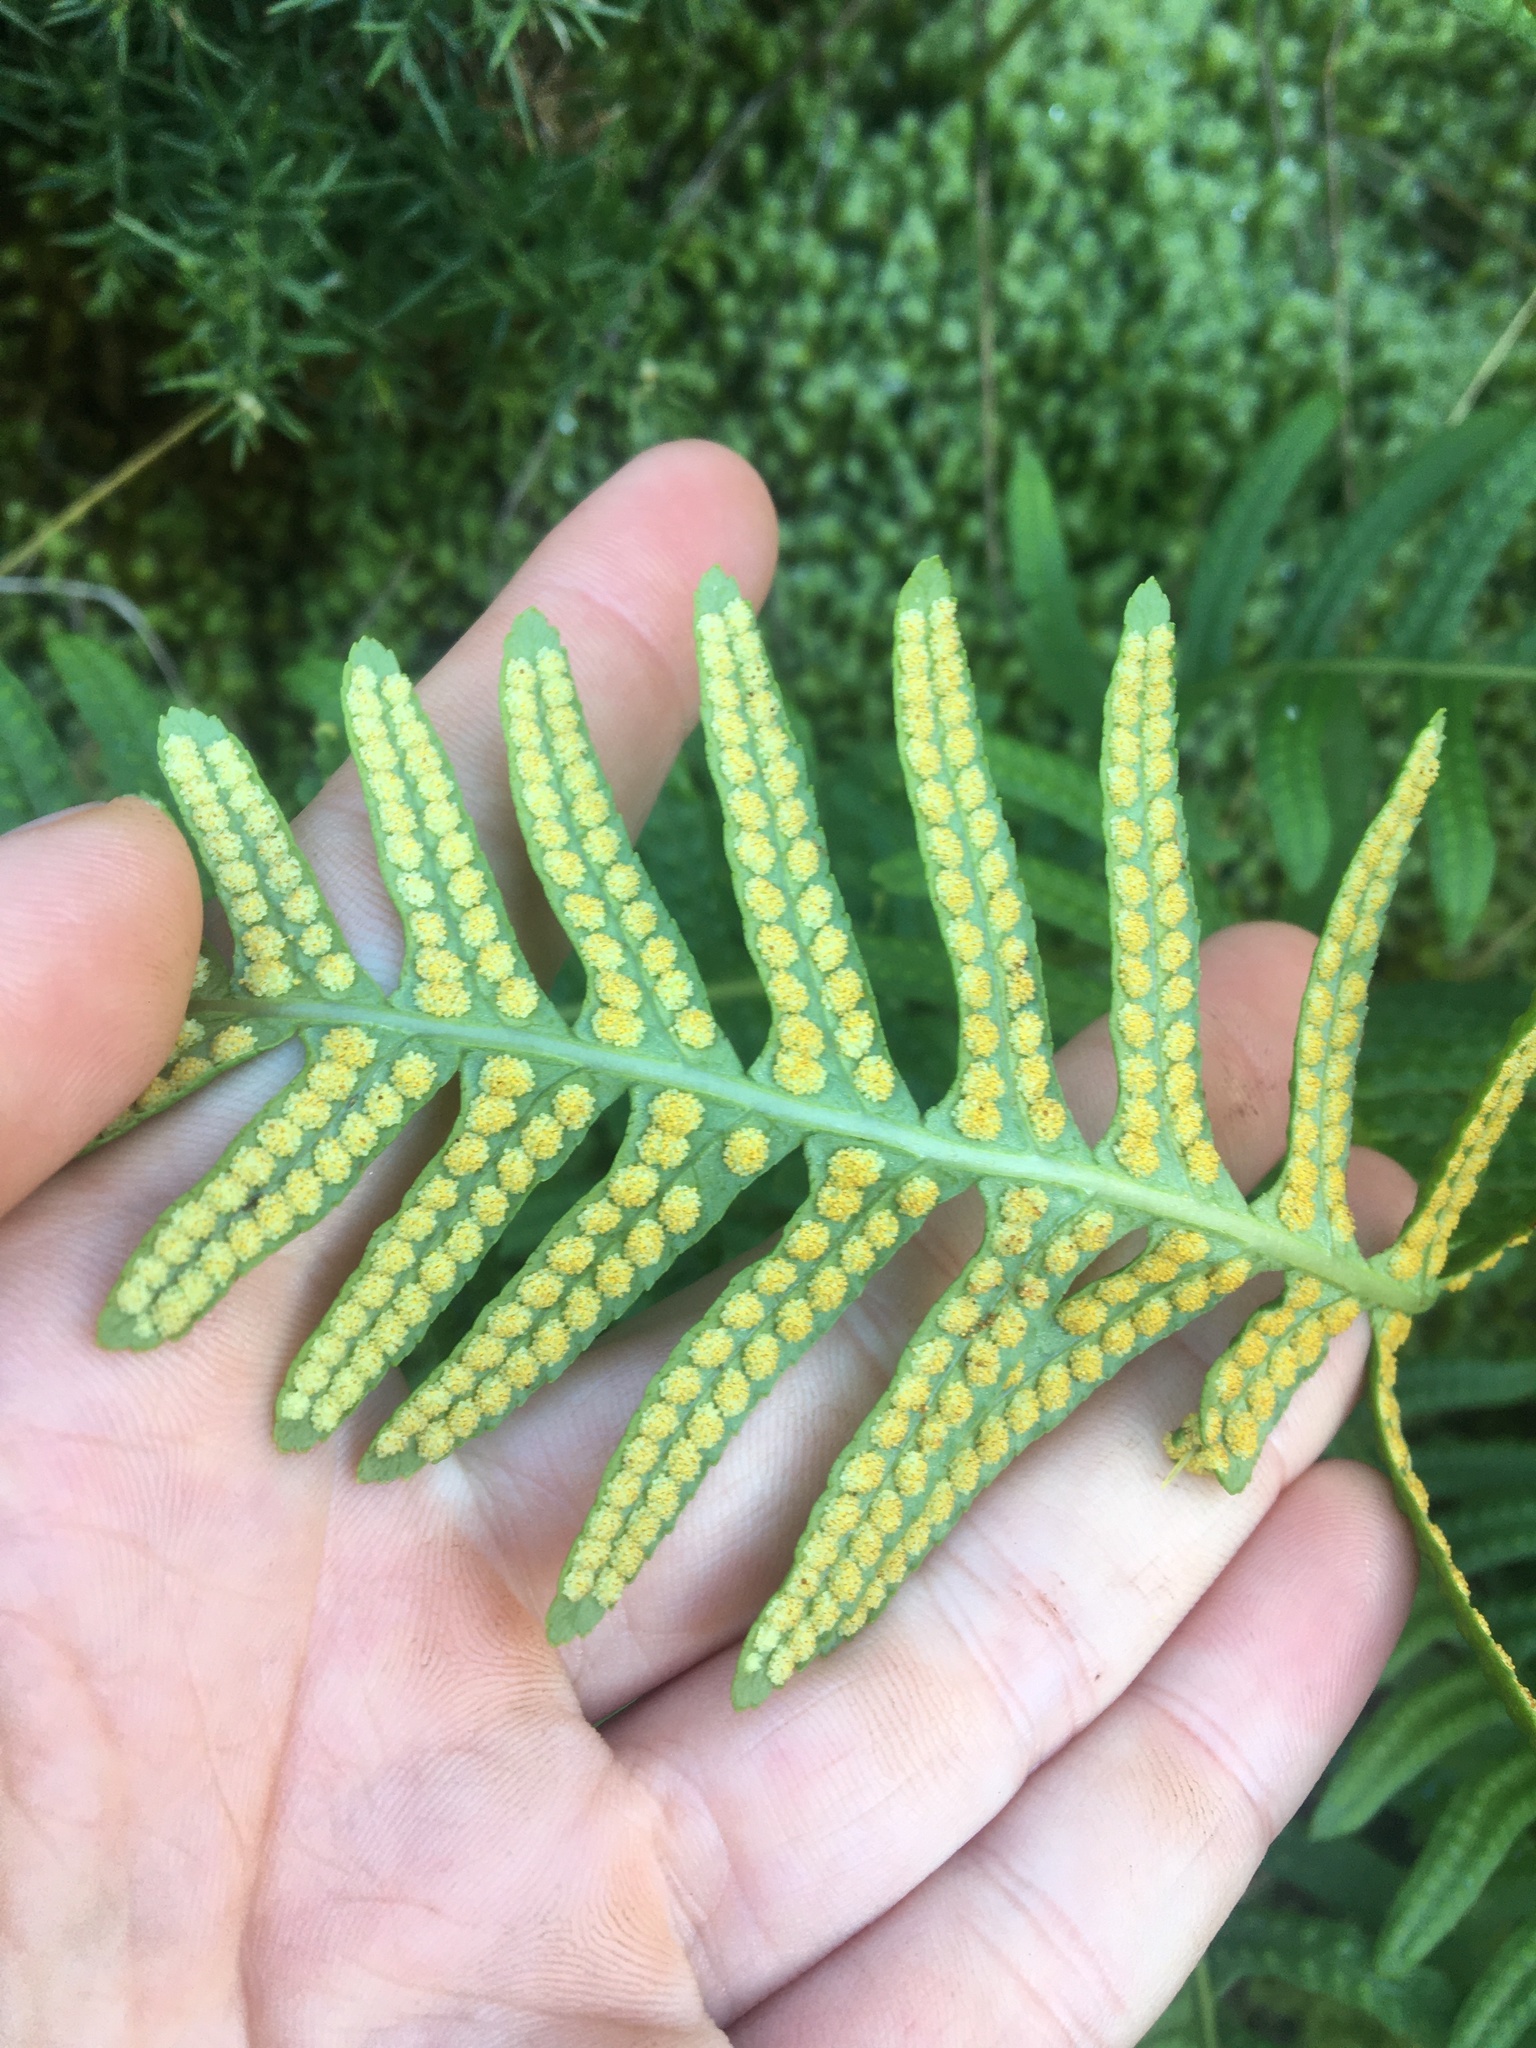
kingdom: Plantae
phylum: Tracheophyta
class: Polypodiopsida
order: Polypodiales
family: Polypodiaceae
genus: Polypodium
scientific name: Polypodium vulgare
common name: Common polypody
